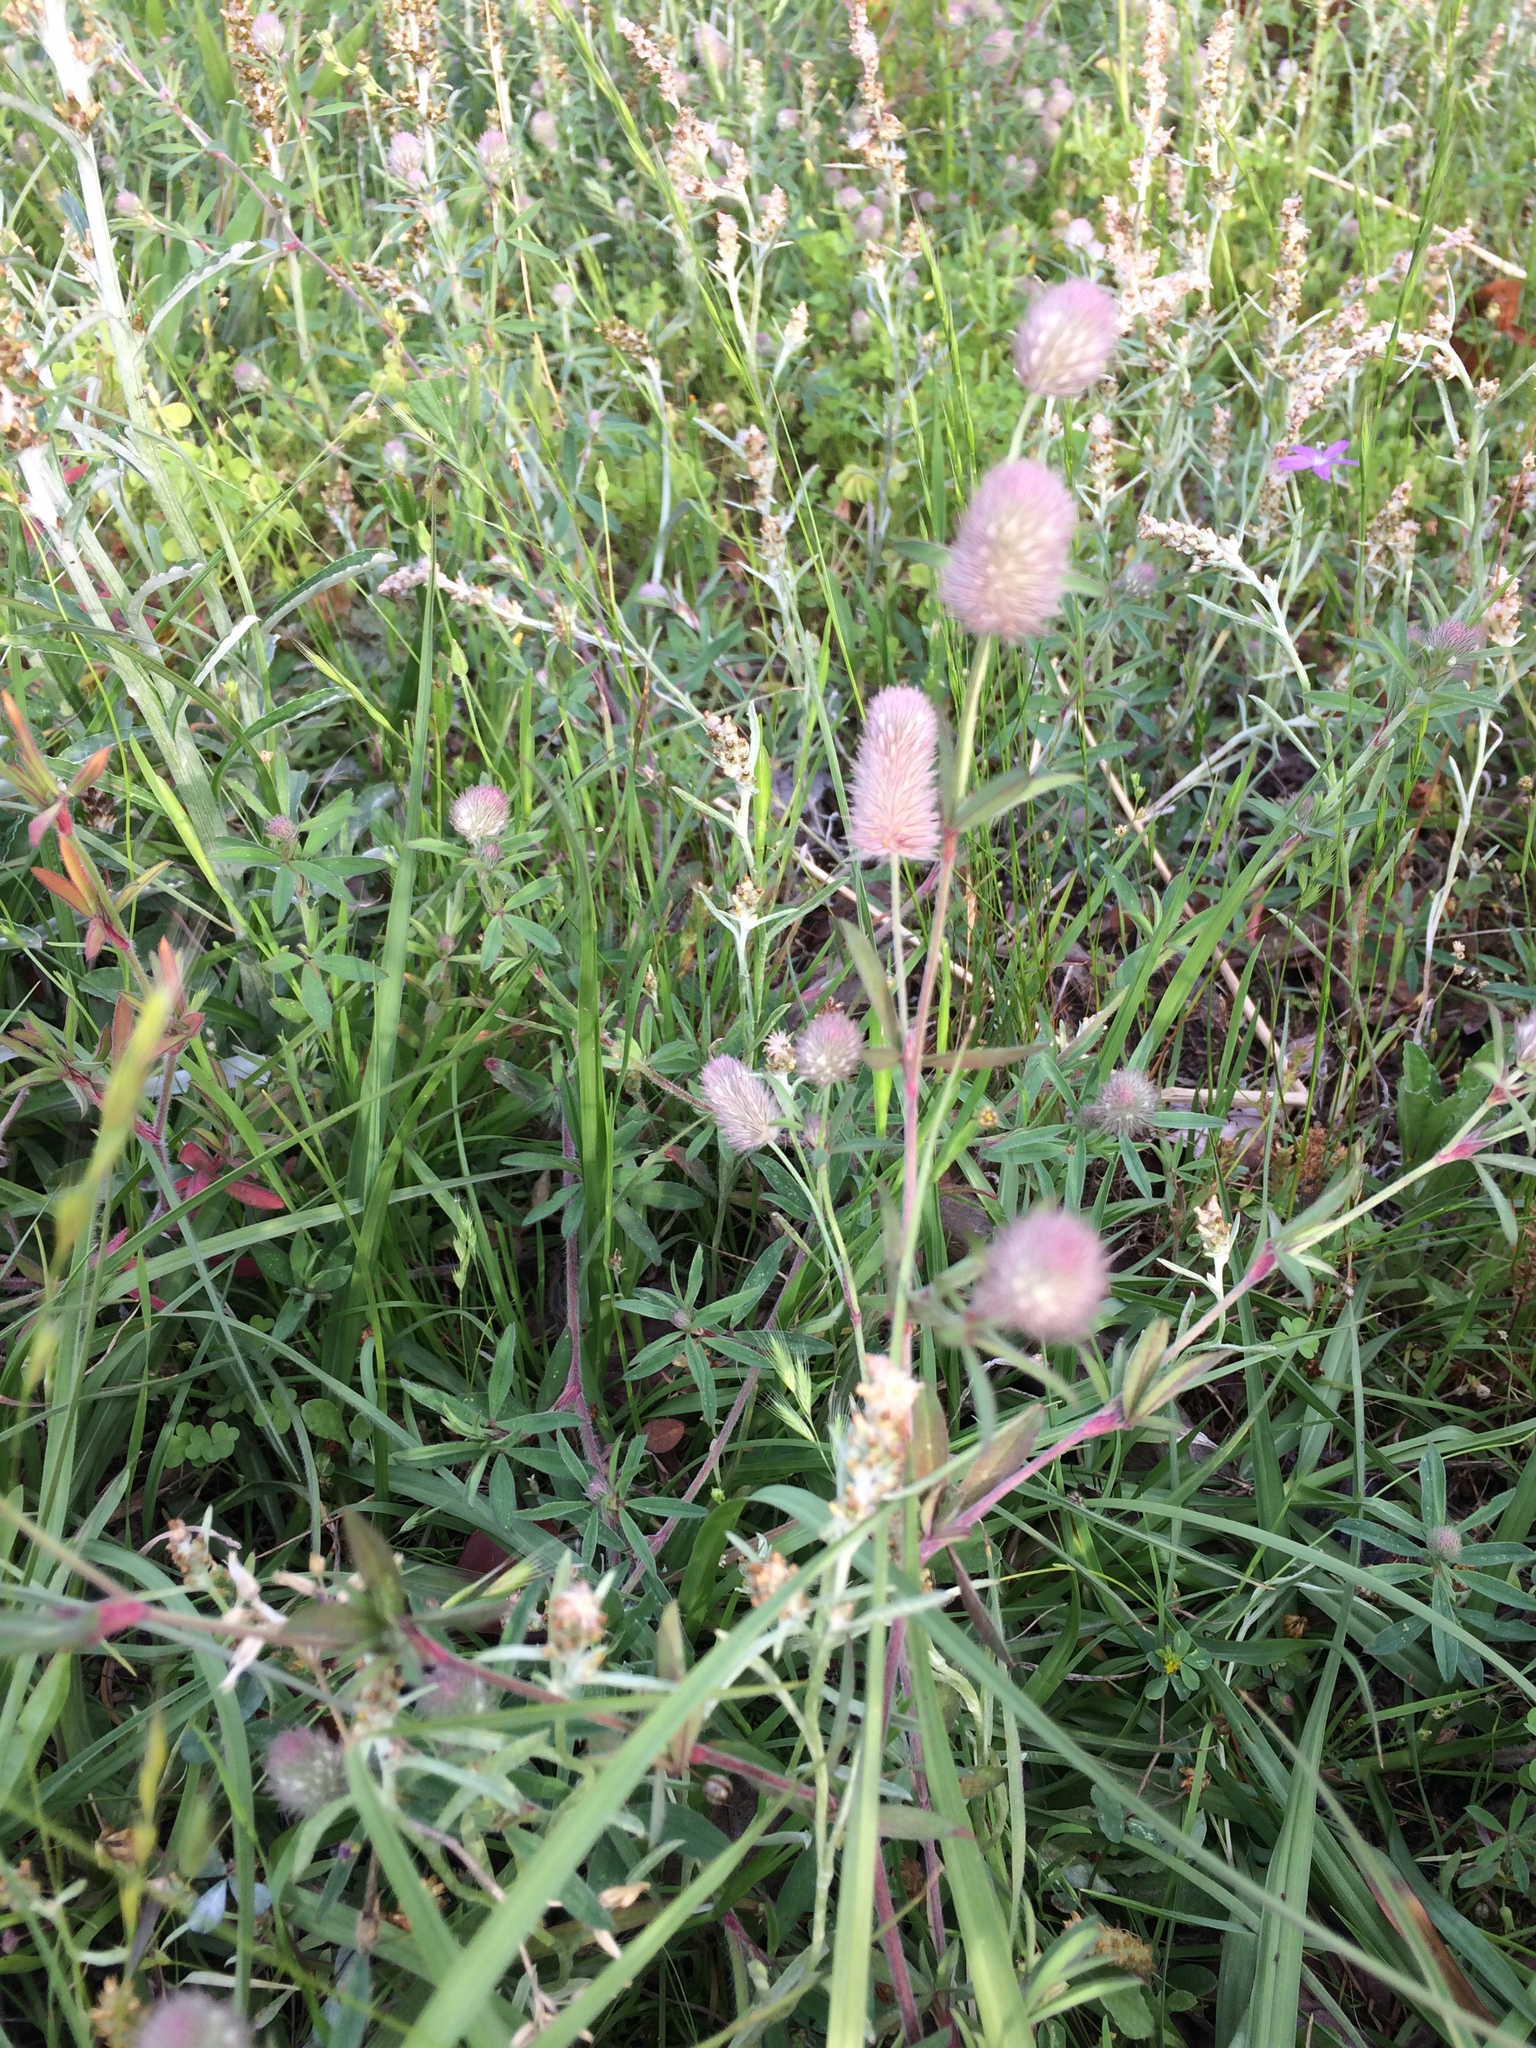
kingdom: Plantae
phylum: Tracheophyta
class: Magnoliopsida
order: Fabales
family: Fabaceae
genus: Trifolium
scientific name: Trifolium arvense
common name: Hare's-foot clover
